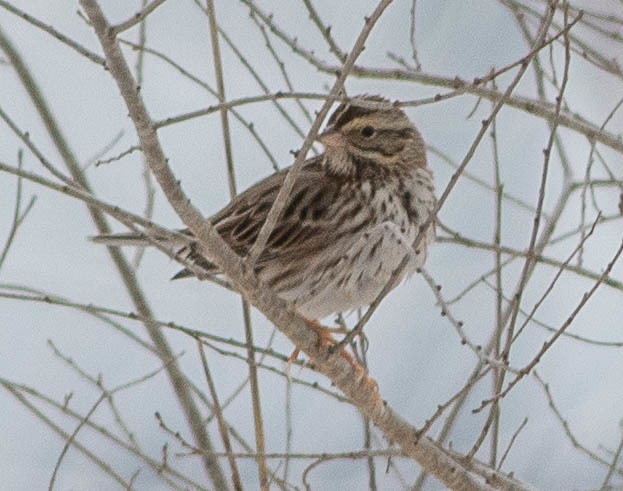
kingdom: Animalia
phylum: Chordata
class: Aves
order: Passeriformes
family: Passerellidae
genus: Passerculus
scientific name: Passerculus sandwichensis
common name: Savannah sparrow
